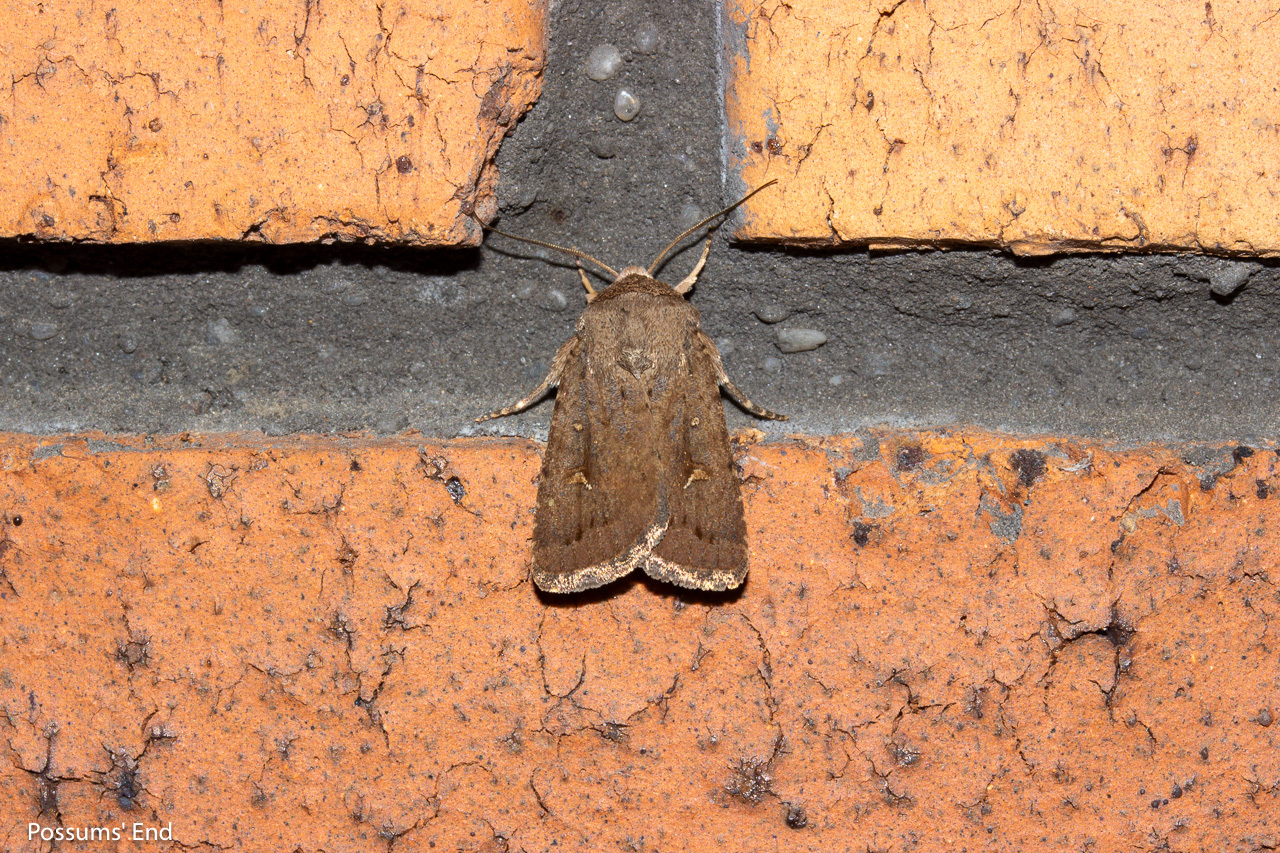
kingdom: Animalia
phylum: Arthropoda
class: Insecta
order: Lepidoptera
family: Noctuidae
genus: Proteuxoa
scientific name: Proteuxoa tetronycha
